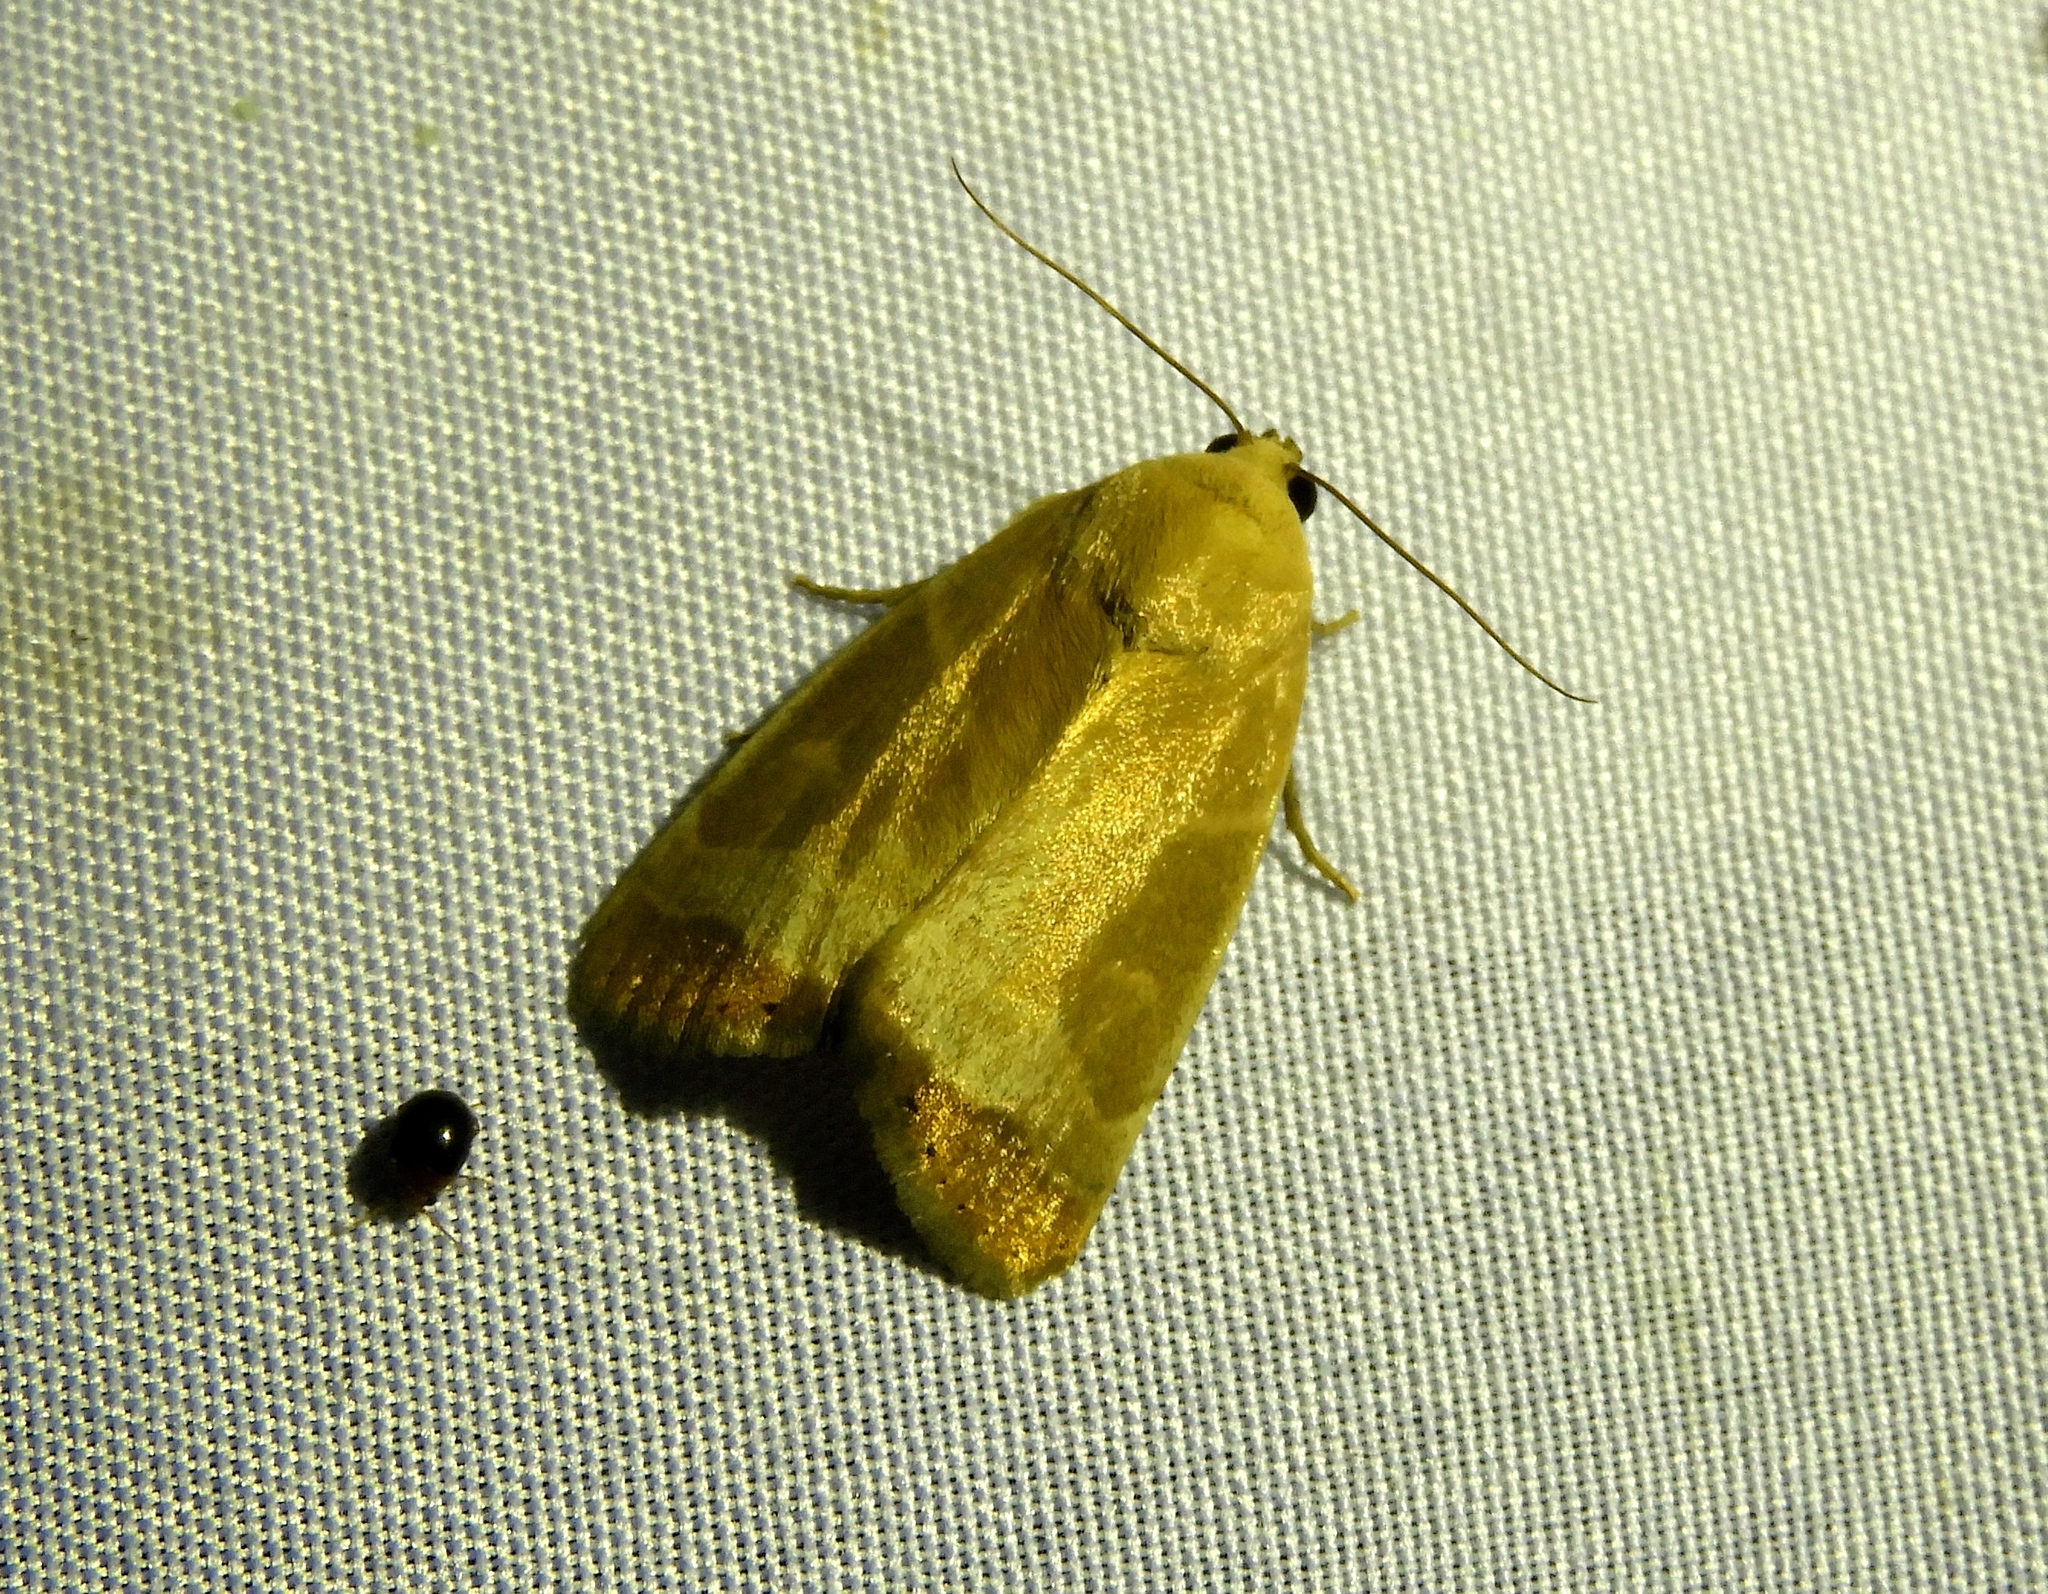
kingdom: Animalia
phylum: Arthropoda
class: Insecta
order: Lepidoptera
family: Noctuidae
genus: Bagisara
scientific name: Bagisara albicosta
